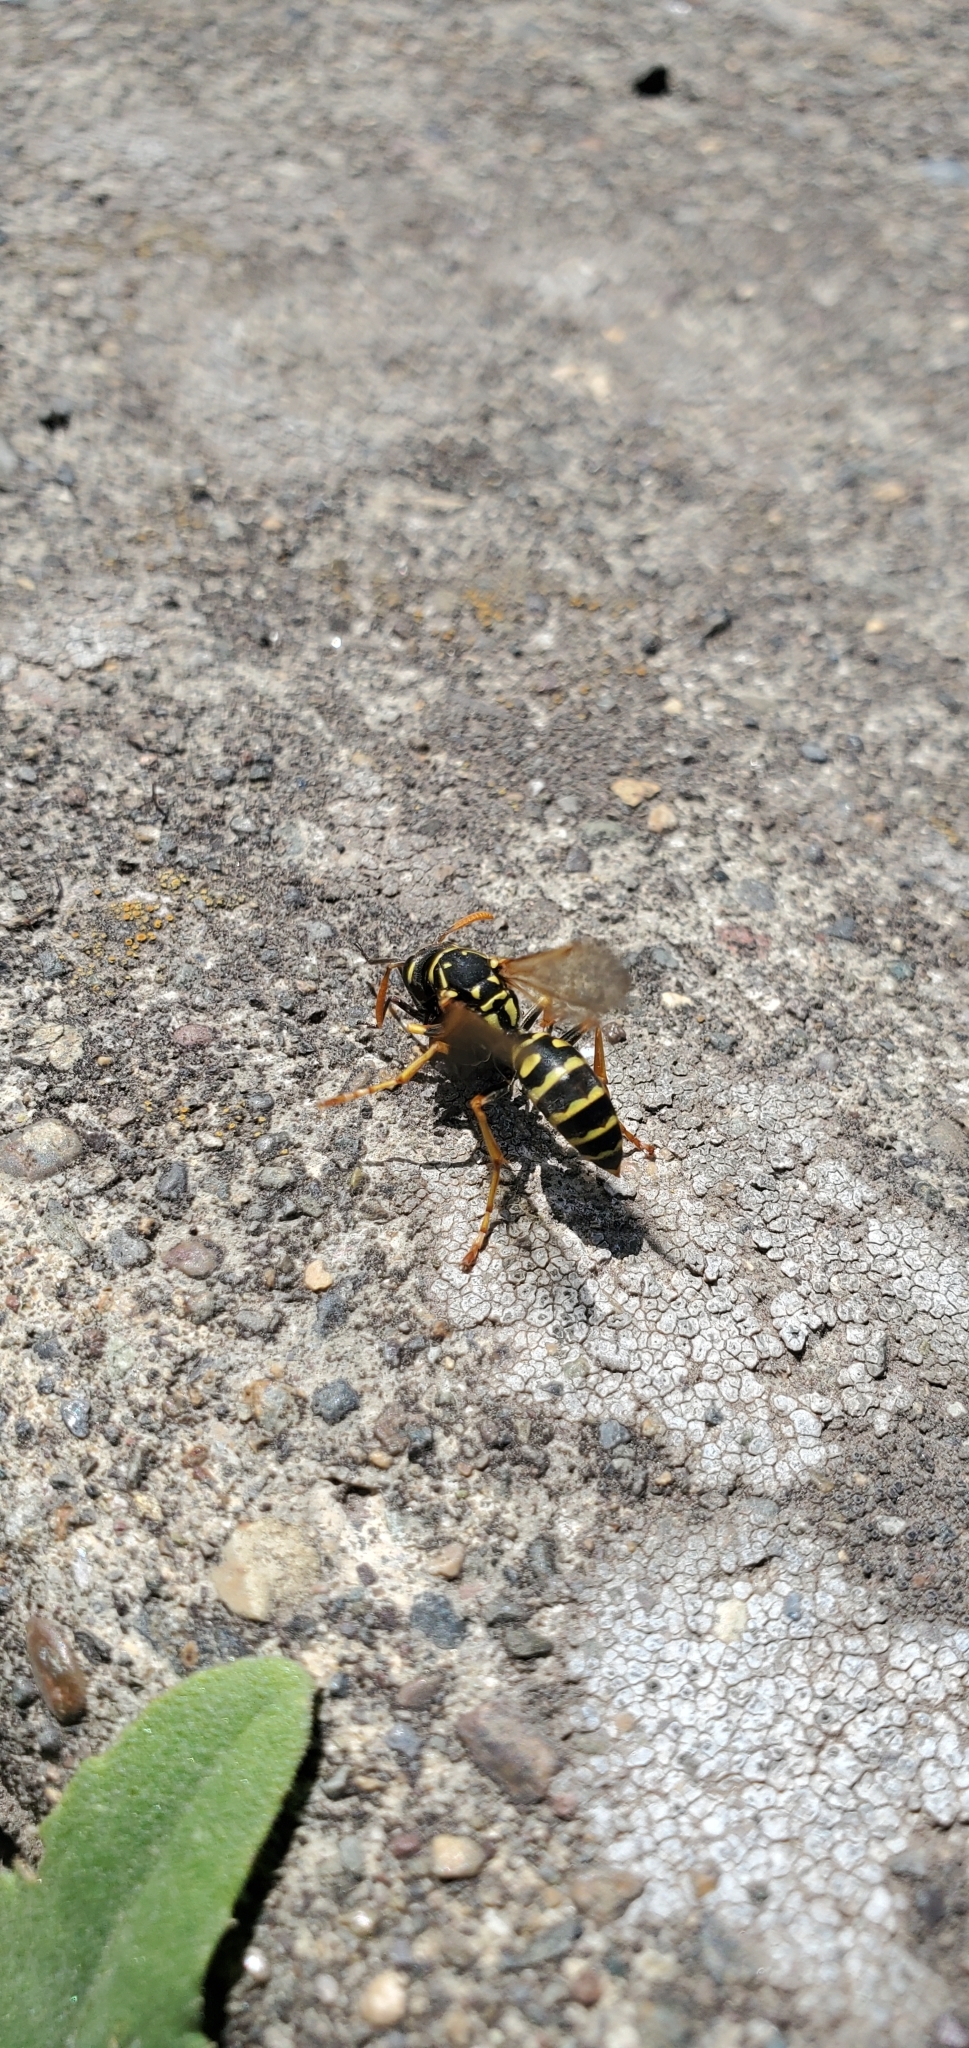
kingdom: Animalia
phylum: Arthropoda
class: Insecta
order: Hymenoptera
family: Eumenidae
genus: Polistes
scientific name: Polistes dominula
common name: Paper wasp
